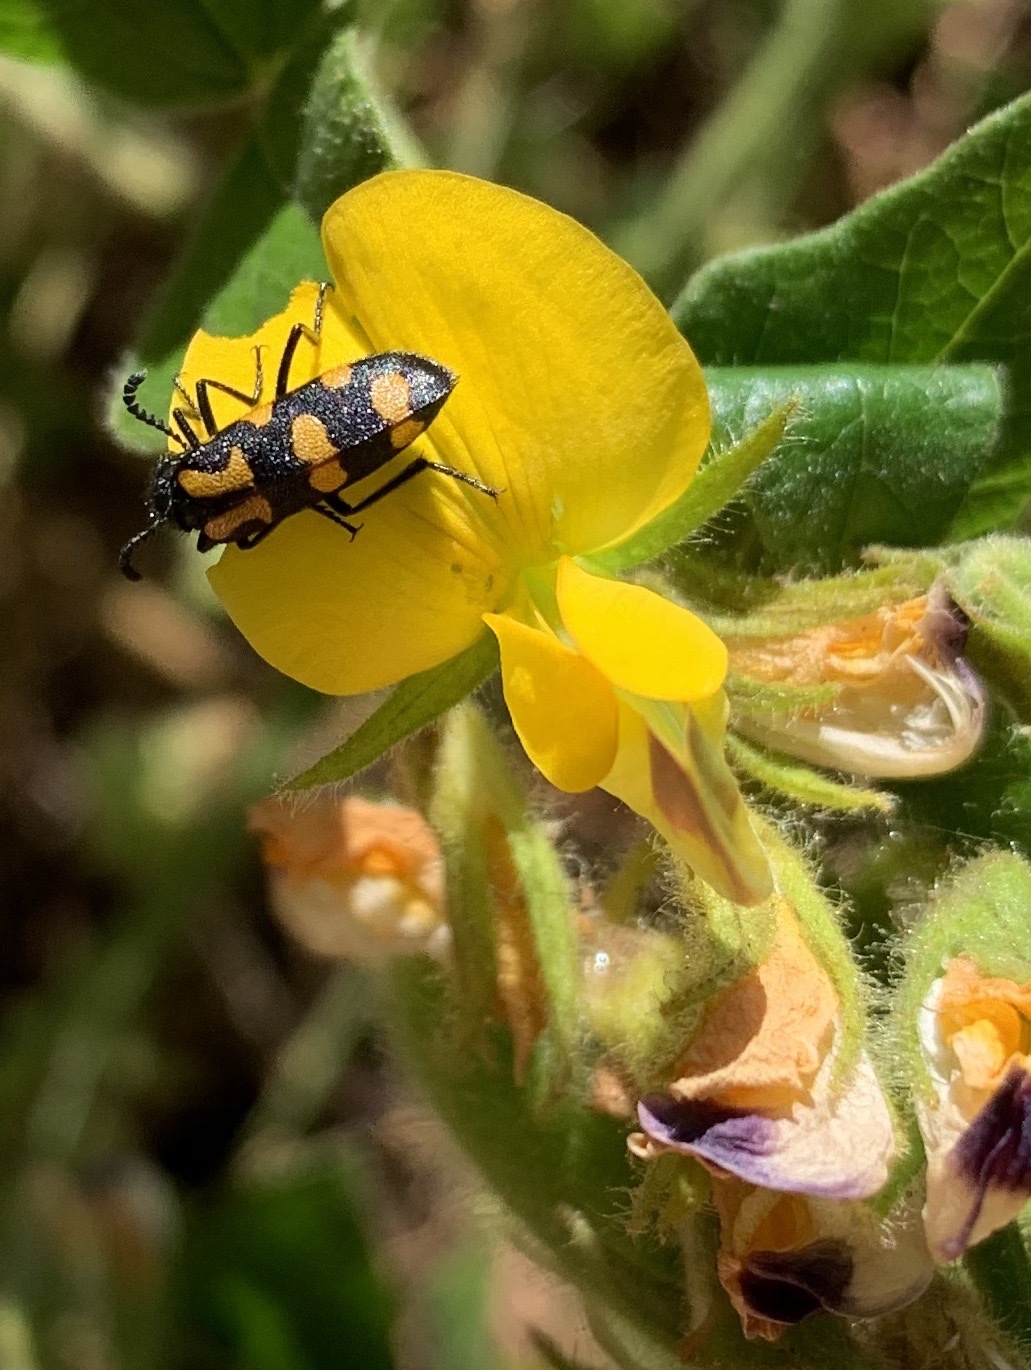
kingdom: Animalia
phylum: Arthropoda
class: Insecta
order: Coleoptera
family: Meloidae
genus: Ceroctis
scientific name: Ceroctis capensis
